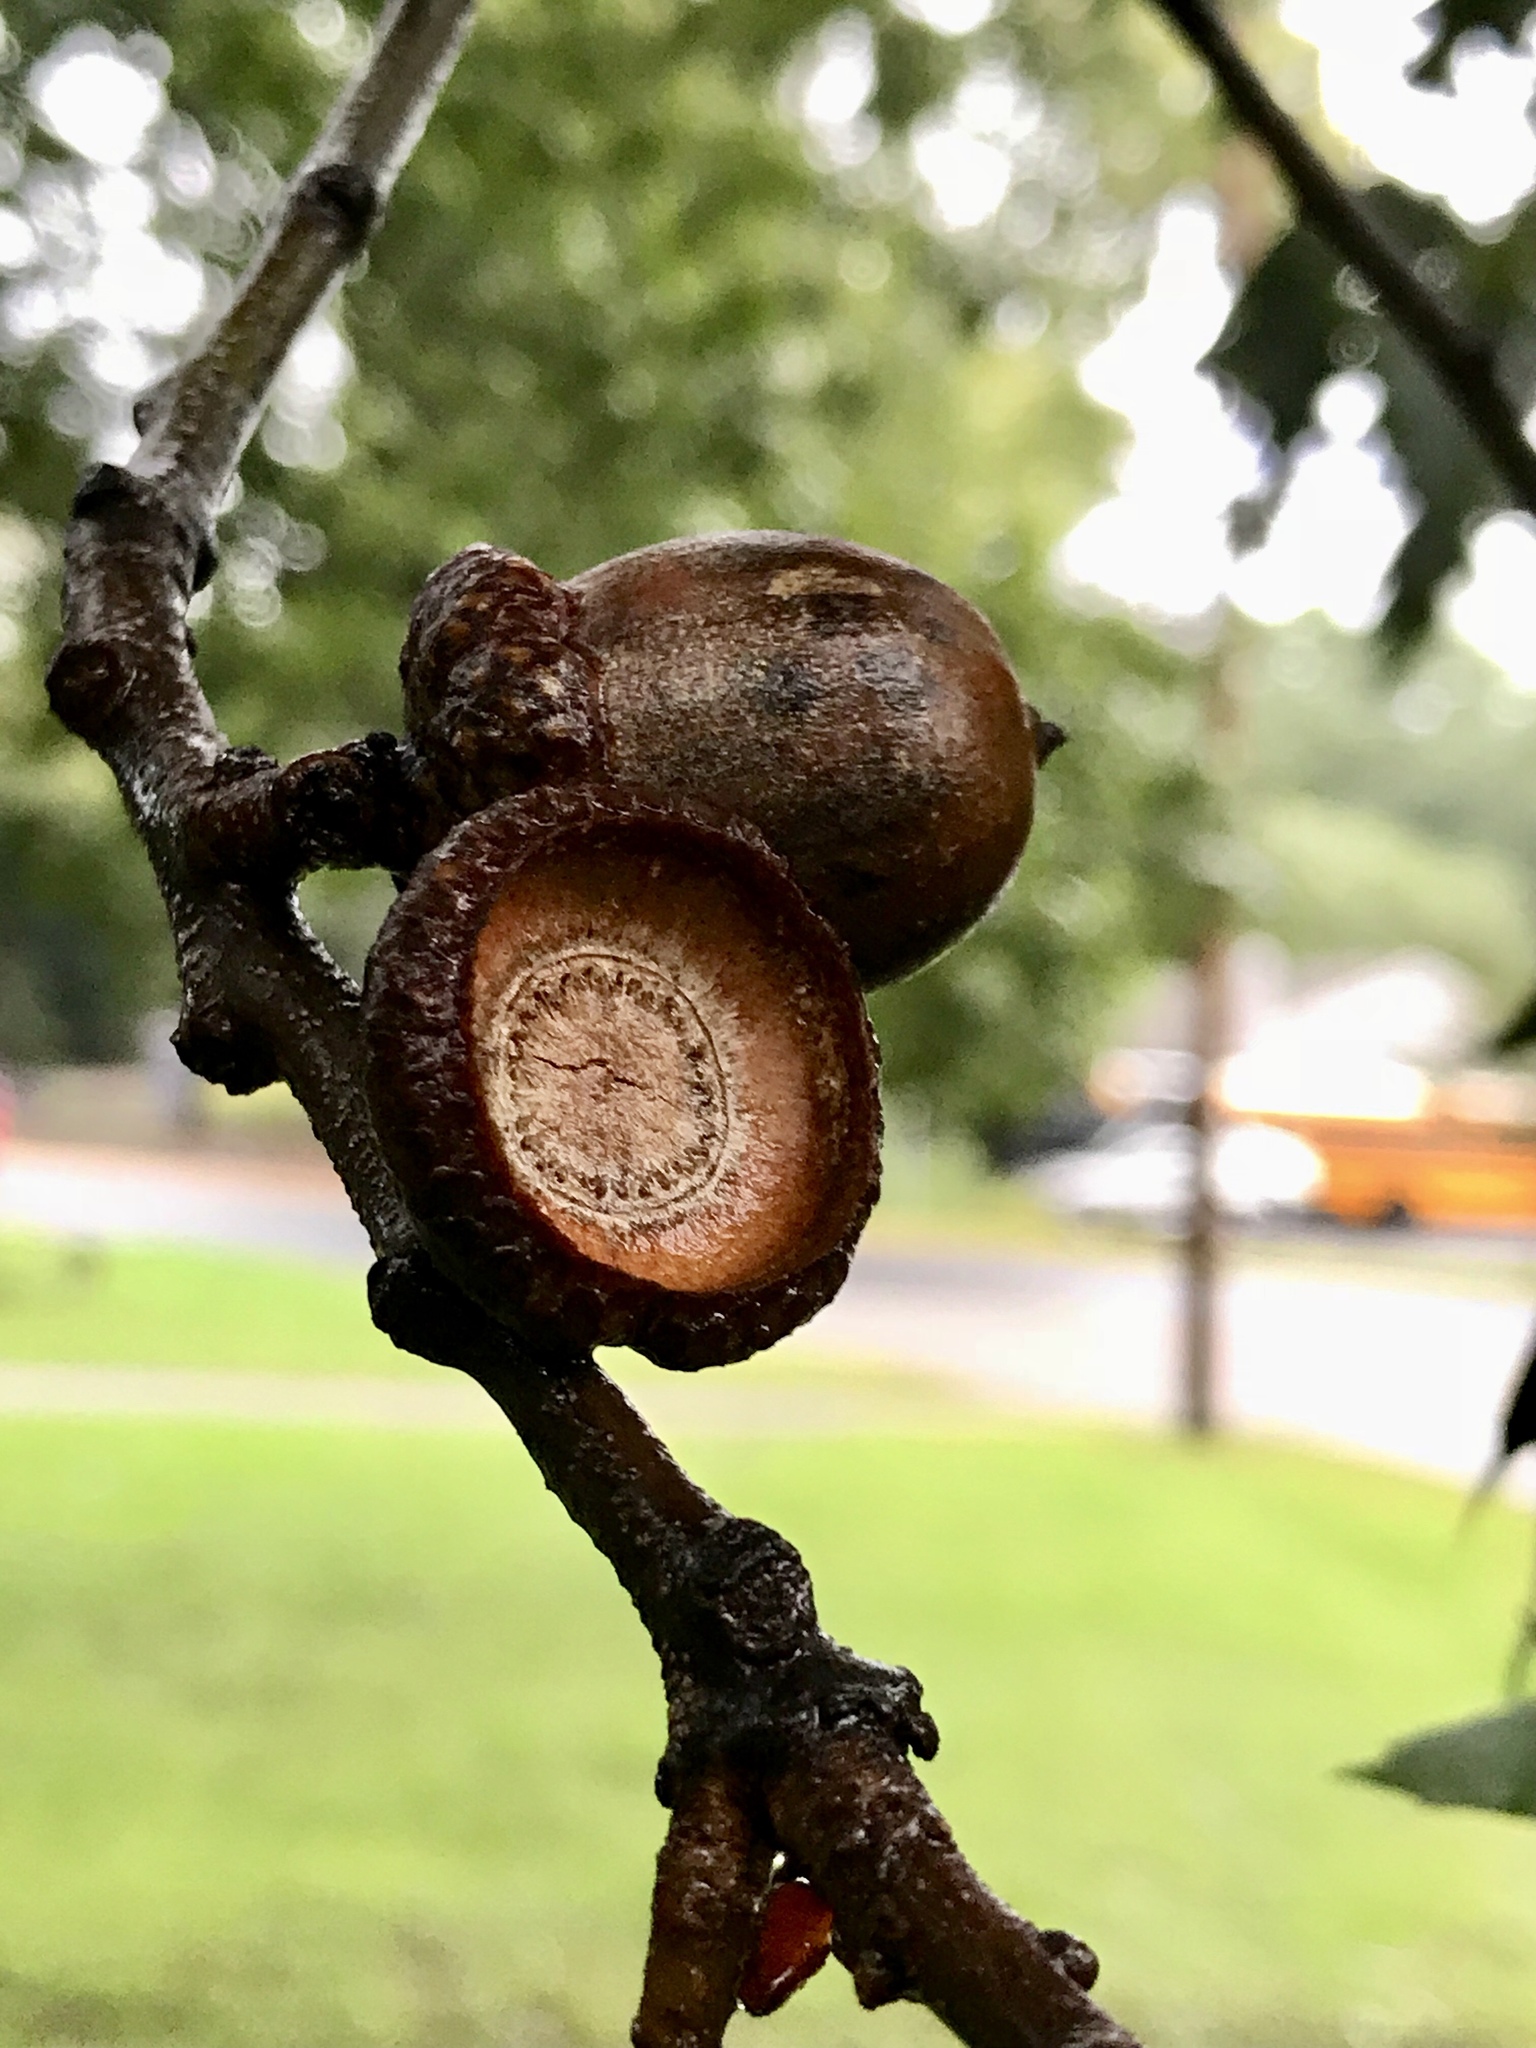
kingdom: Plantae
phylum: Tracheophyta
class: Magnoliopsida
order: Fagales
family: Fagaceae
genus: Quercus
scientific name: Quercus rubra
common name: Red oak
